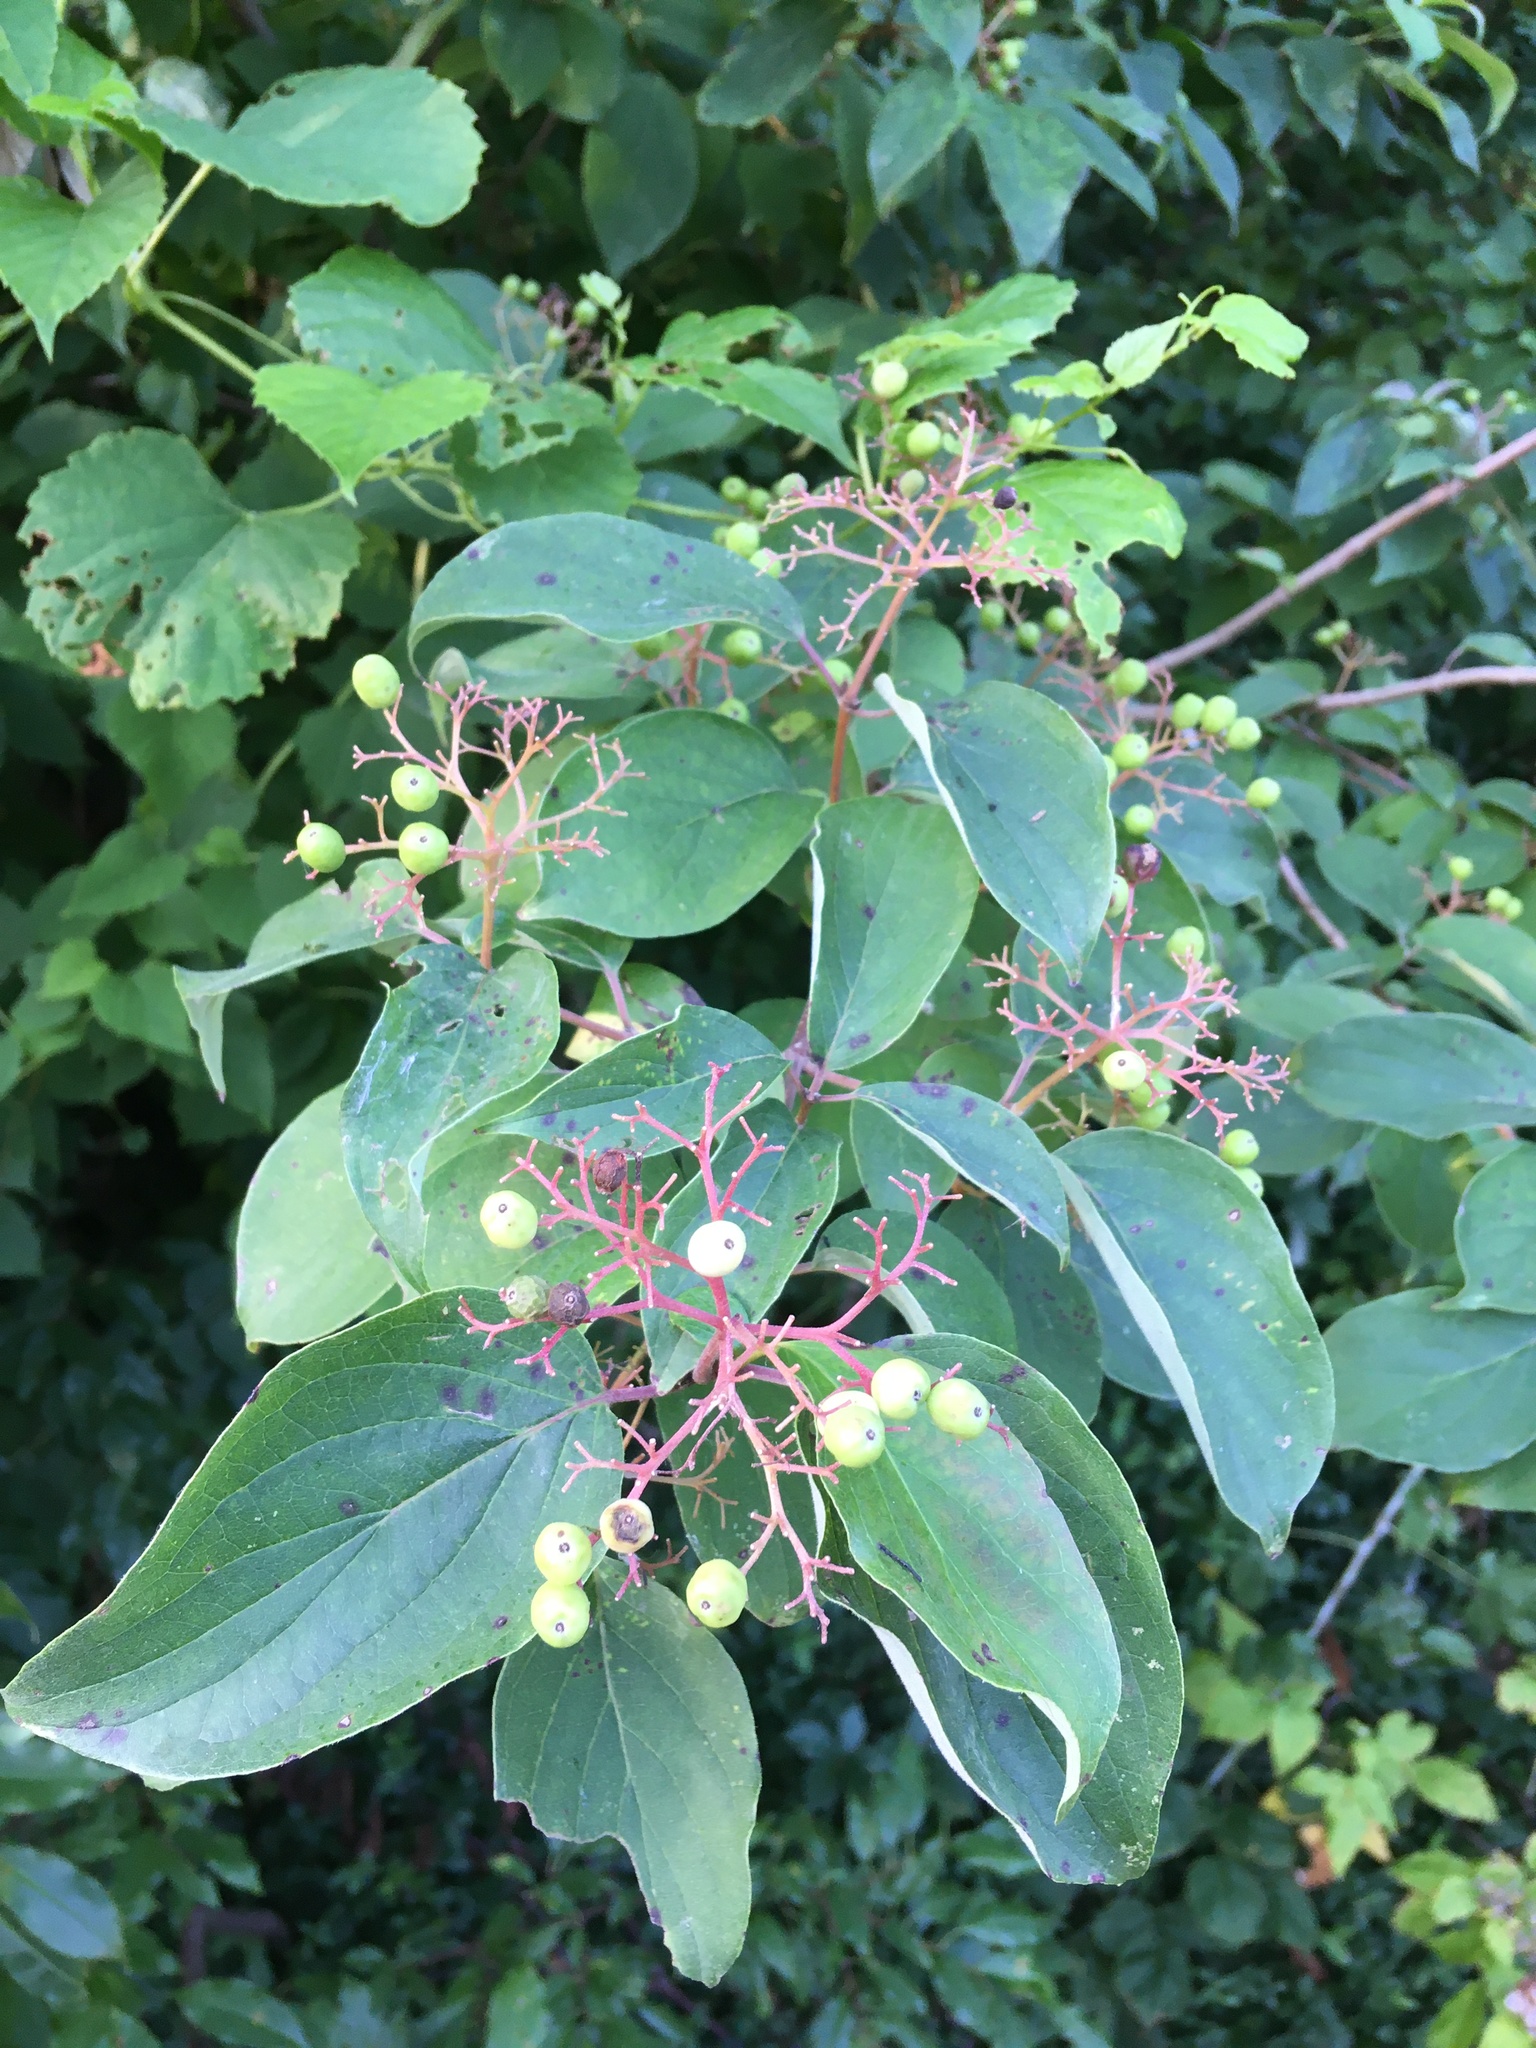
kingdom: Plantae
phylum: Tracheophyta
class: Magnoliopsida
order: Cornales
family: Cornaceae
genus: Cornus
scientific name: Cornus drummondii
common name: Rough-leaf dogwood
